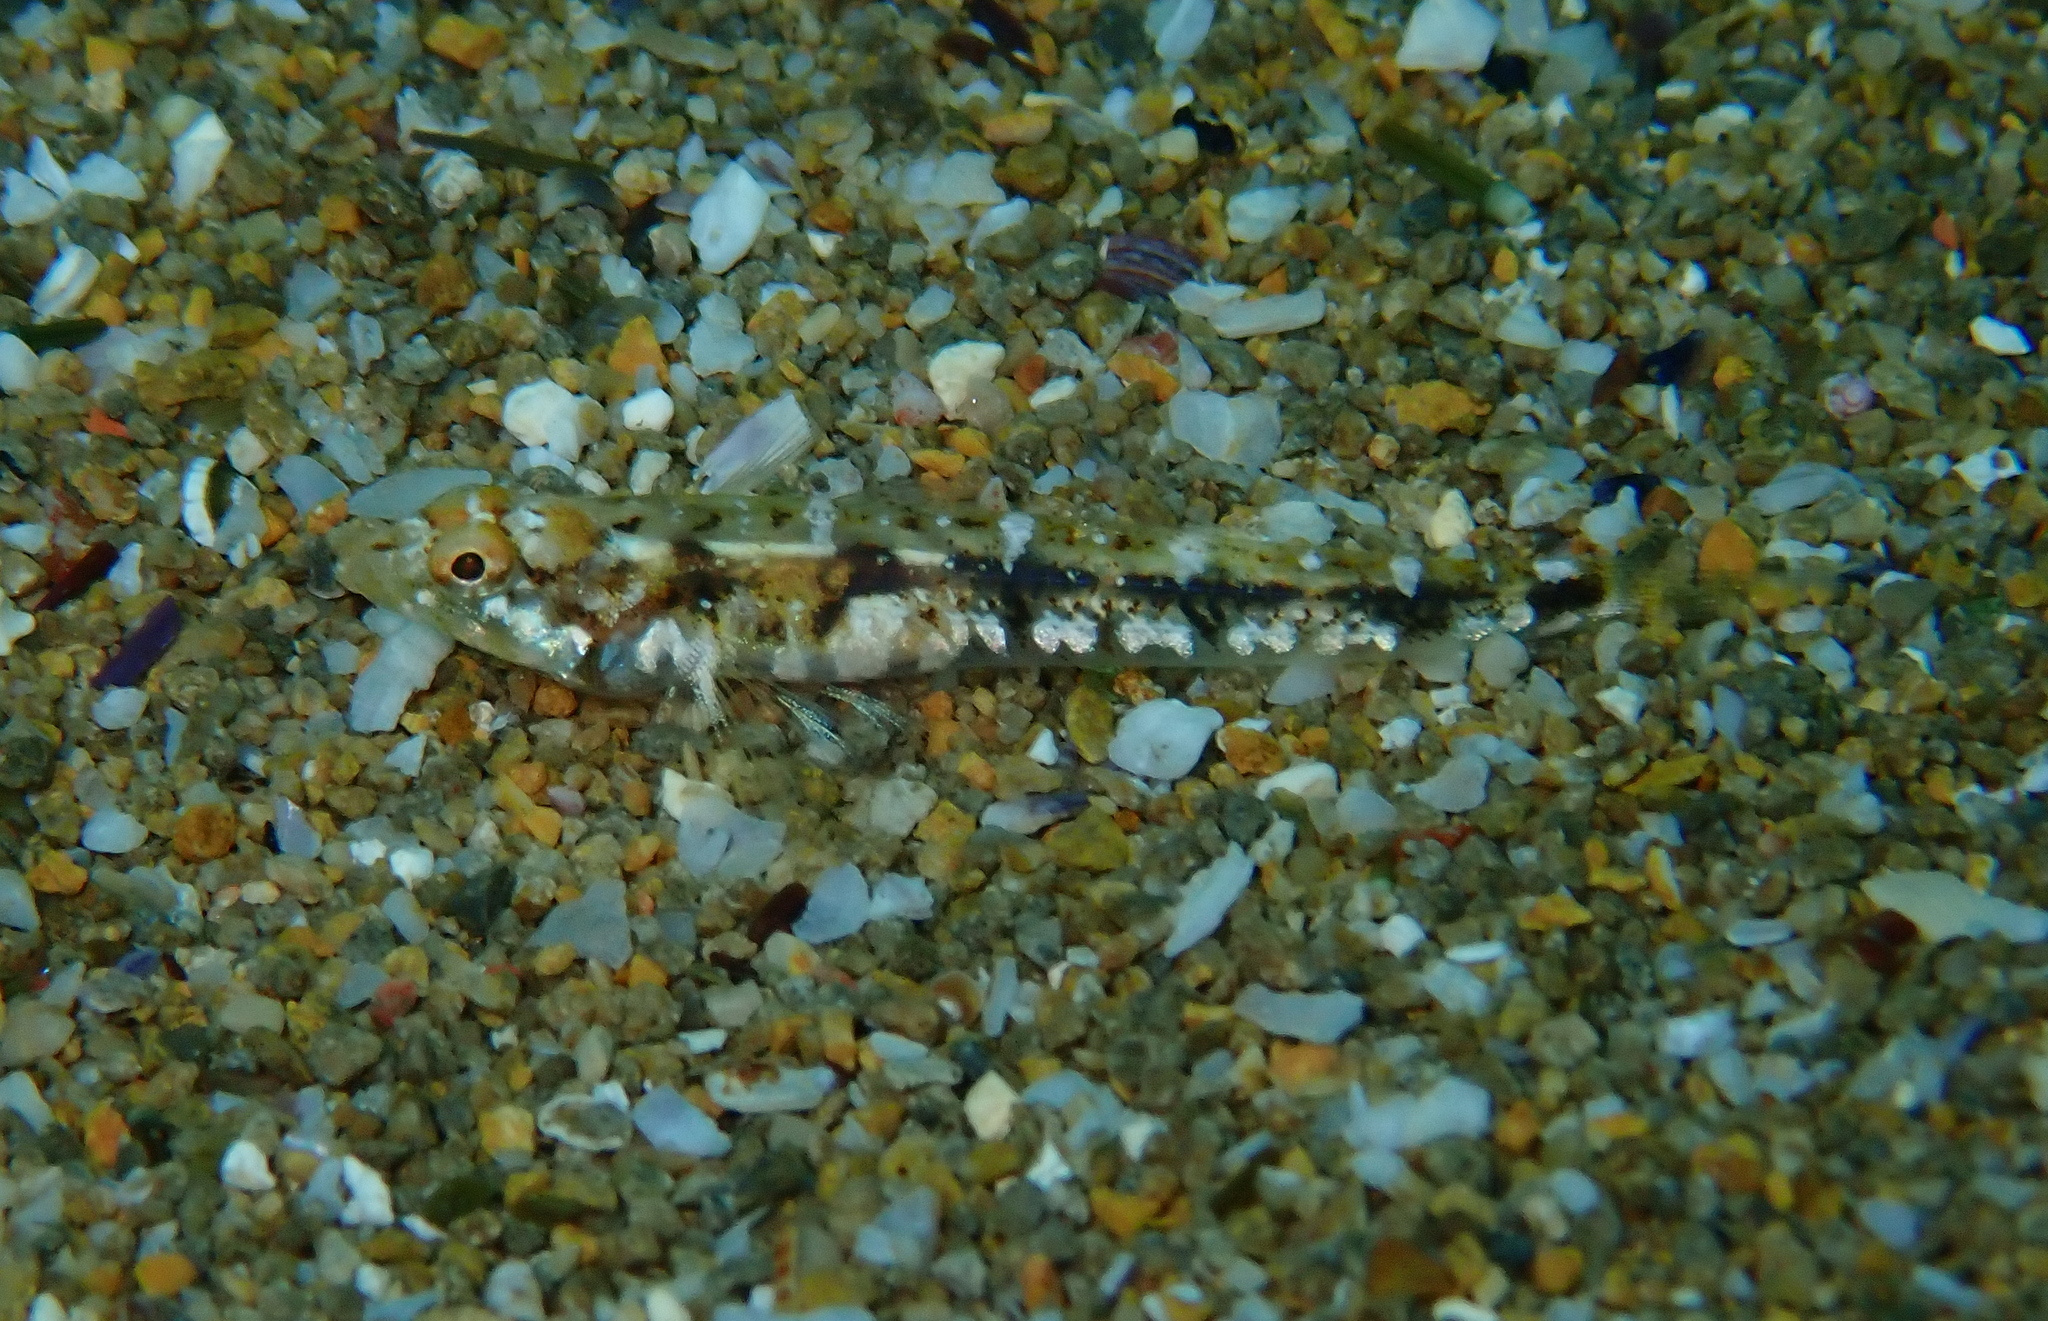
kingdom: Animalia
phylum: Chordata
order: Perciformes
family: Gobiidae
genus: Pomatoschistus
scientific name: Pomatoschistus bathi
